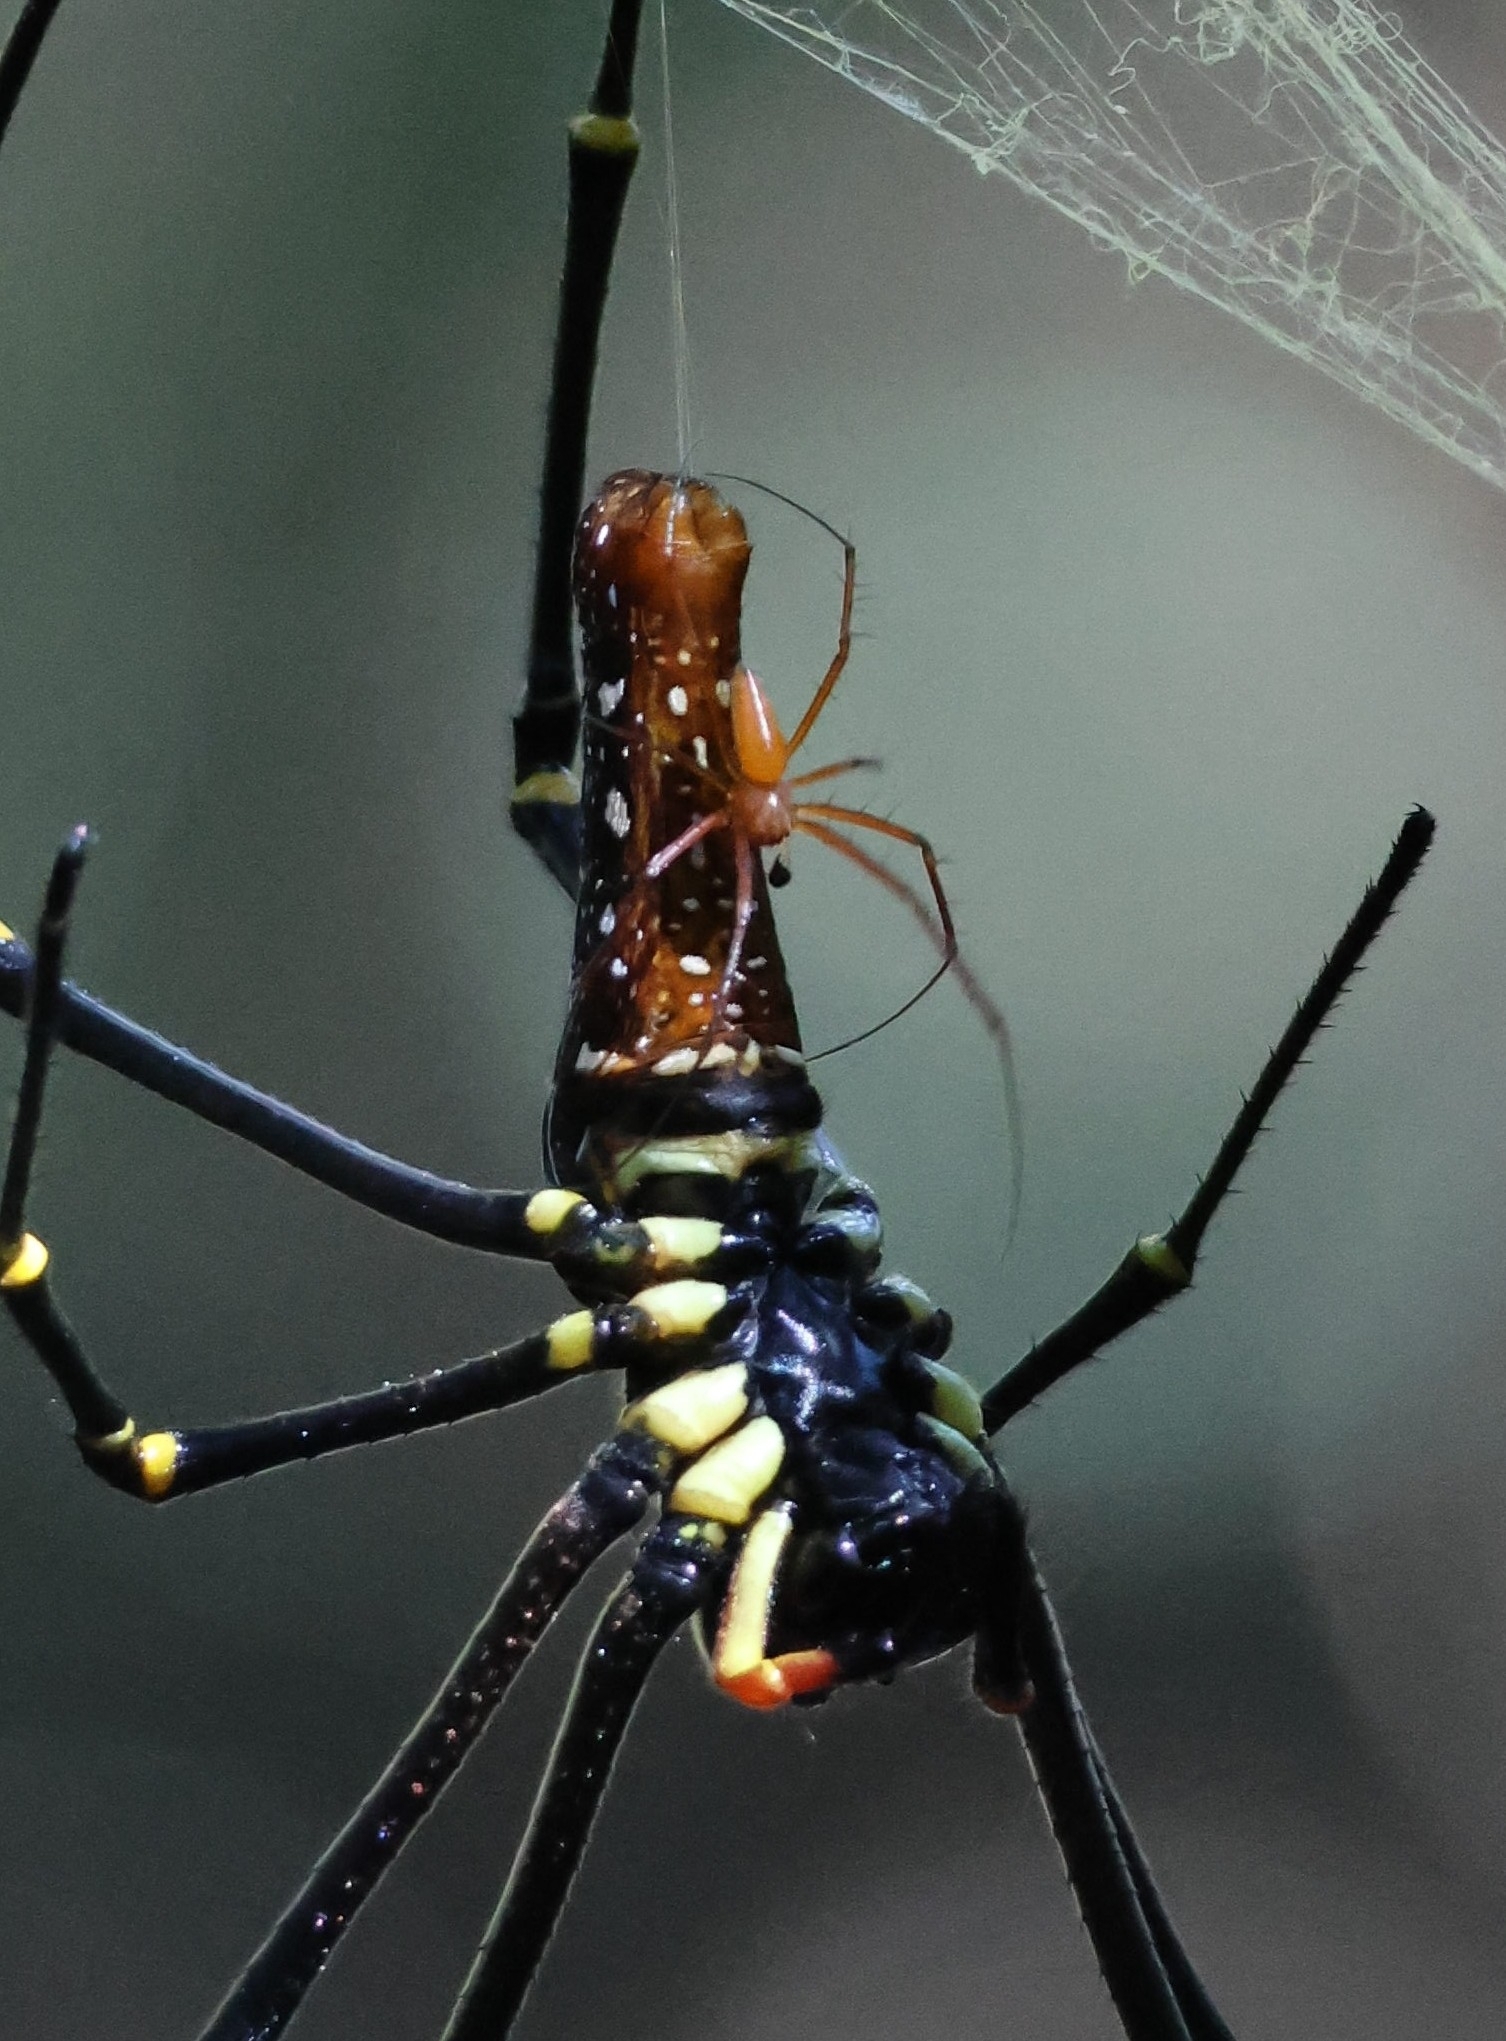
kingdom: Animalia
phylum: Arthropoda
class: Arachnida
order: Araneae
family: Araneidae
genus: Nephila
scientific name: Nephila pilipes
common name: Giant golden orb weaver
